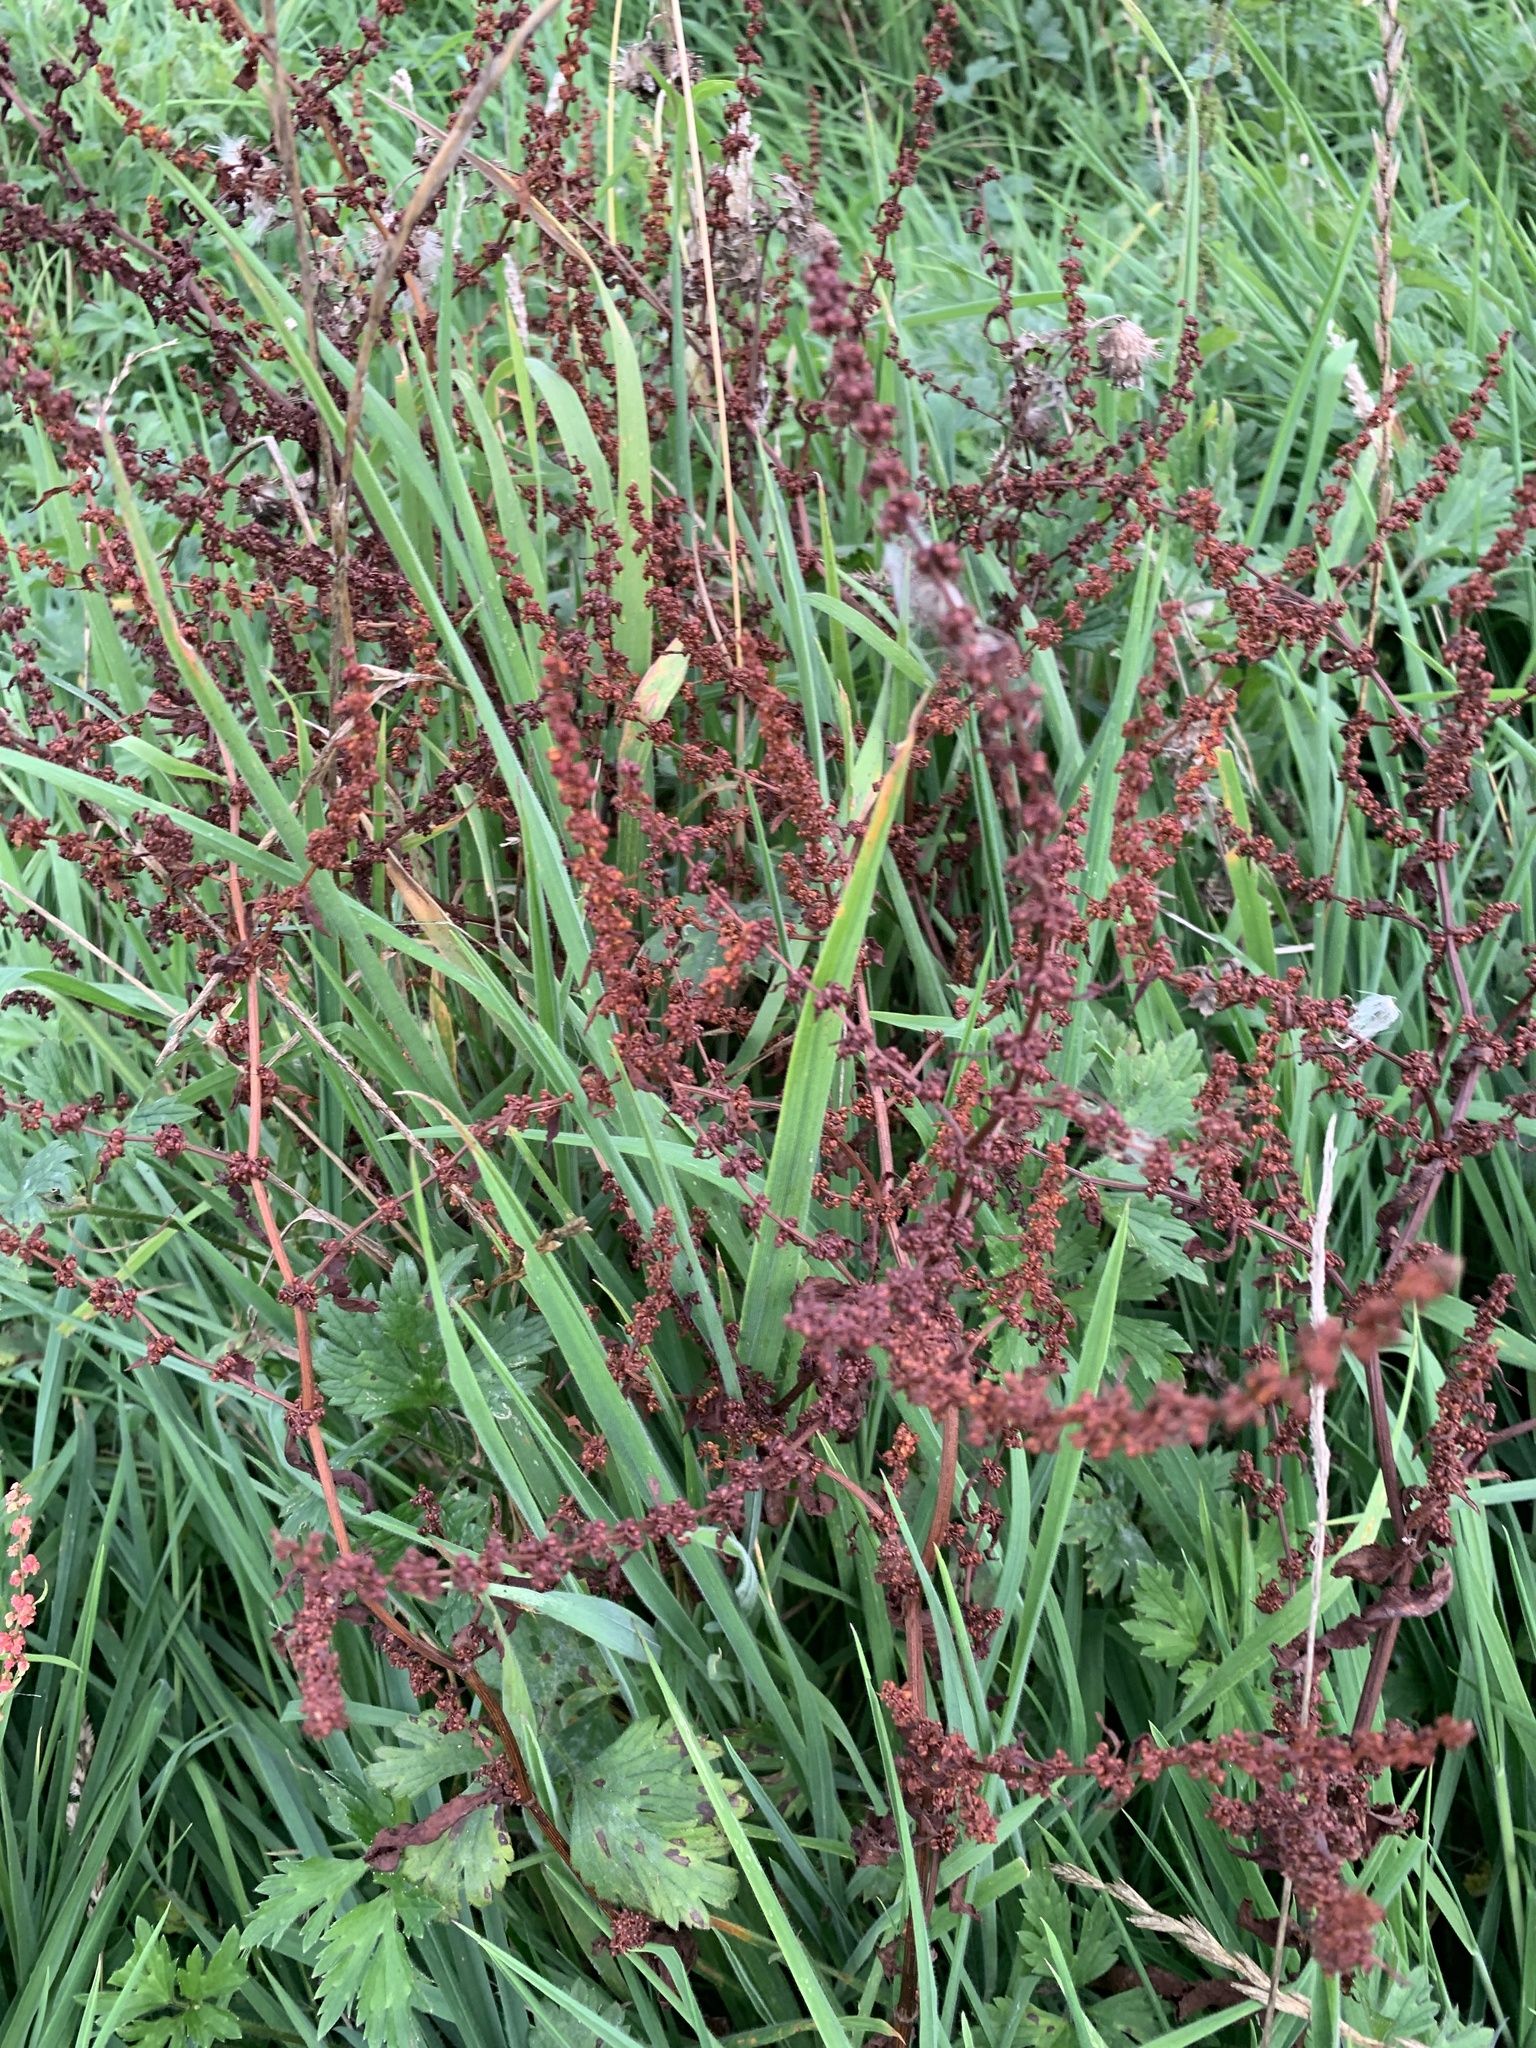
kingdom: Plantae
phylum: Tracheophyta
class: Magnoliopsida
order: Caryophyllales
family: Polygonaceae
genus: Rumex
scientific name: Rumex sanguineus
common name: Wood dock
